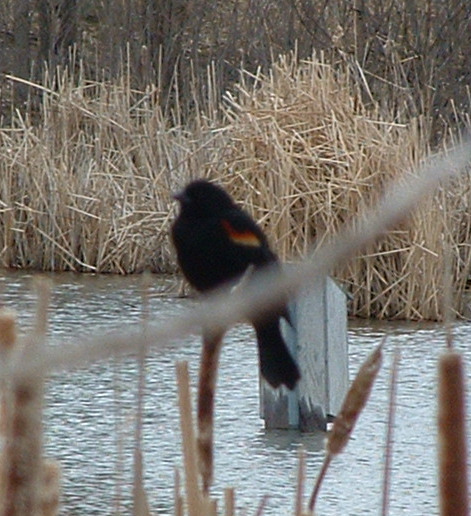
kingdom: Animalia
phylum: Chordata
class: Aves
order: Passeriformes
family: Icteridae
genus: Agelaius
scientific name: Agelaius phoeniceus
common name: Red-winged blackbird
